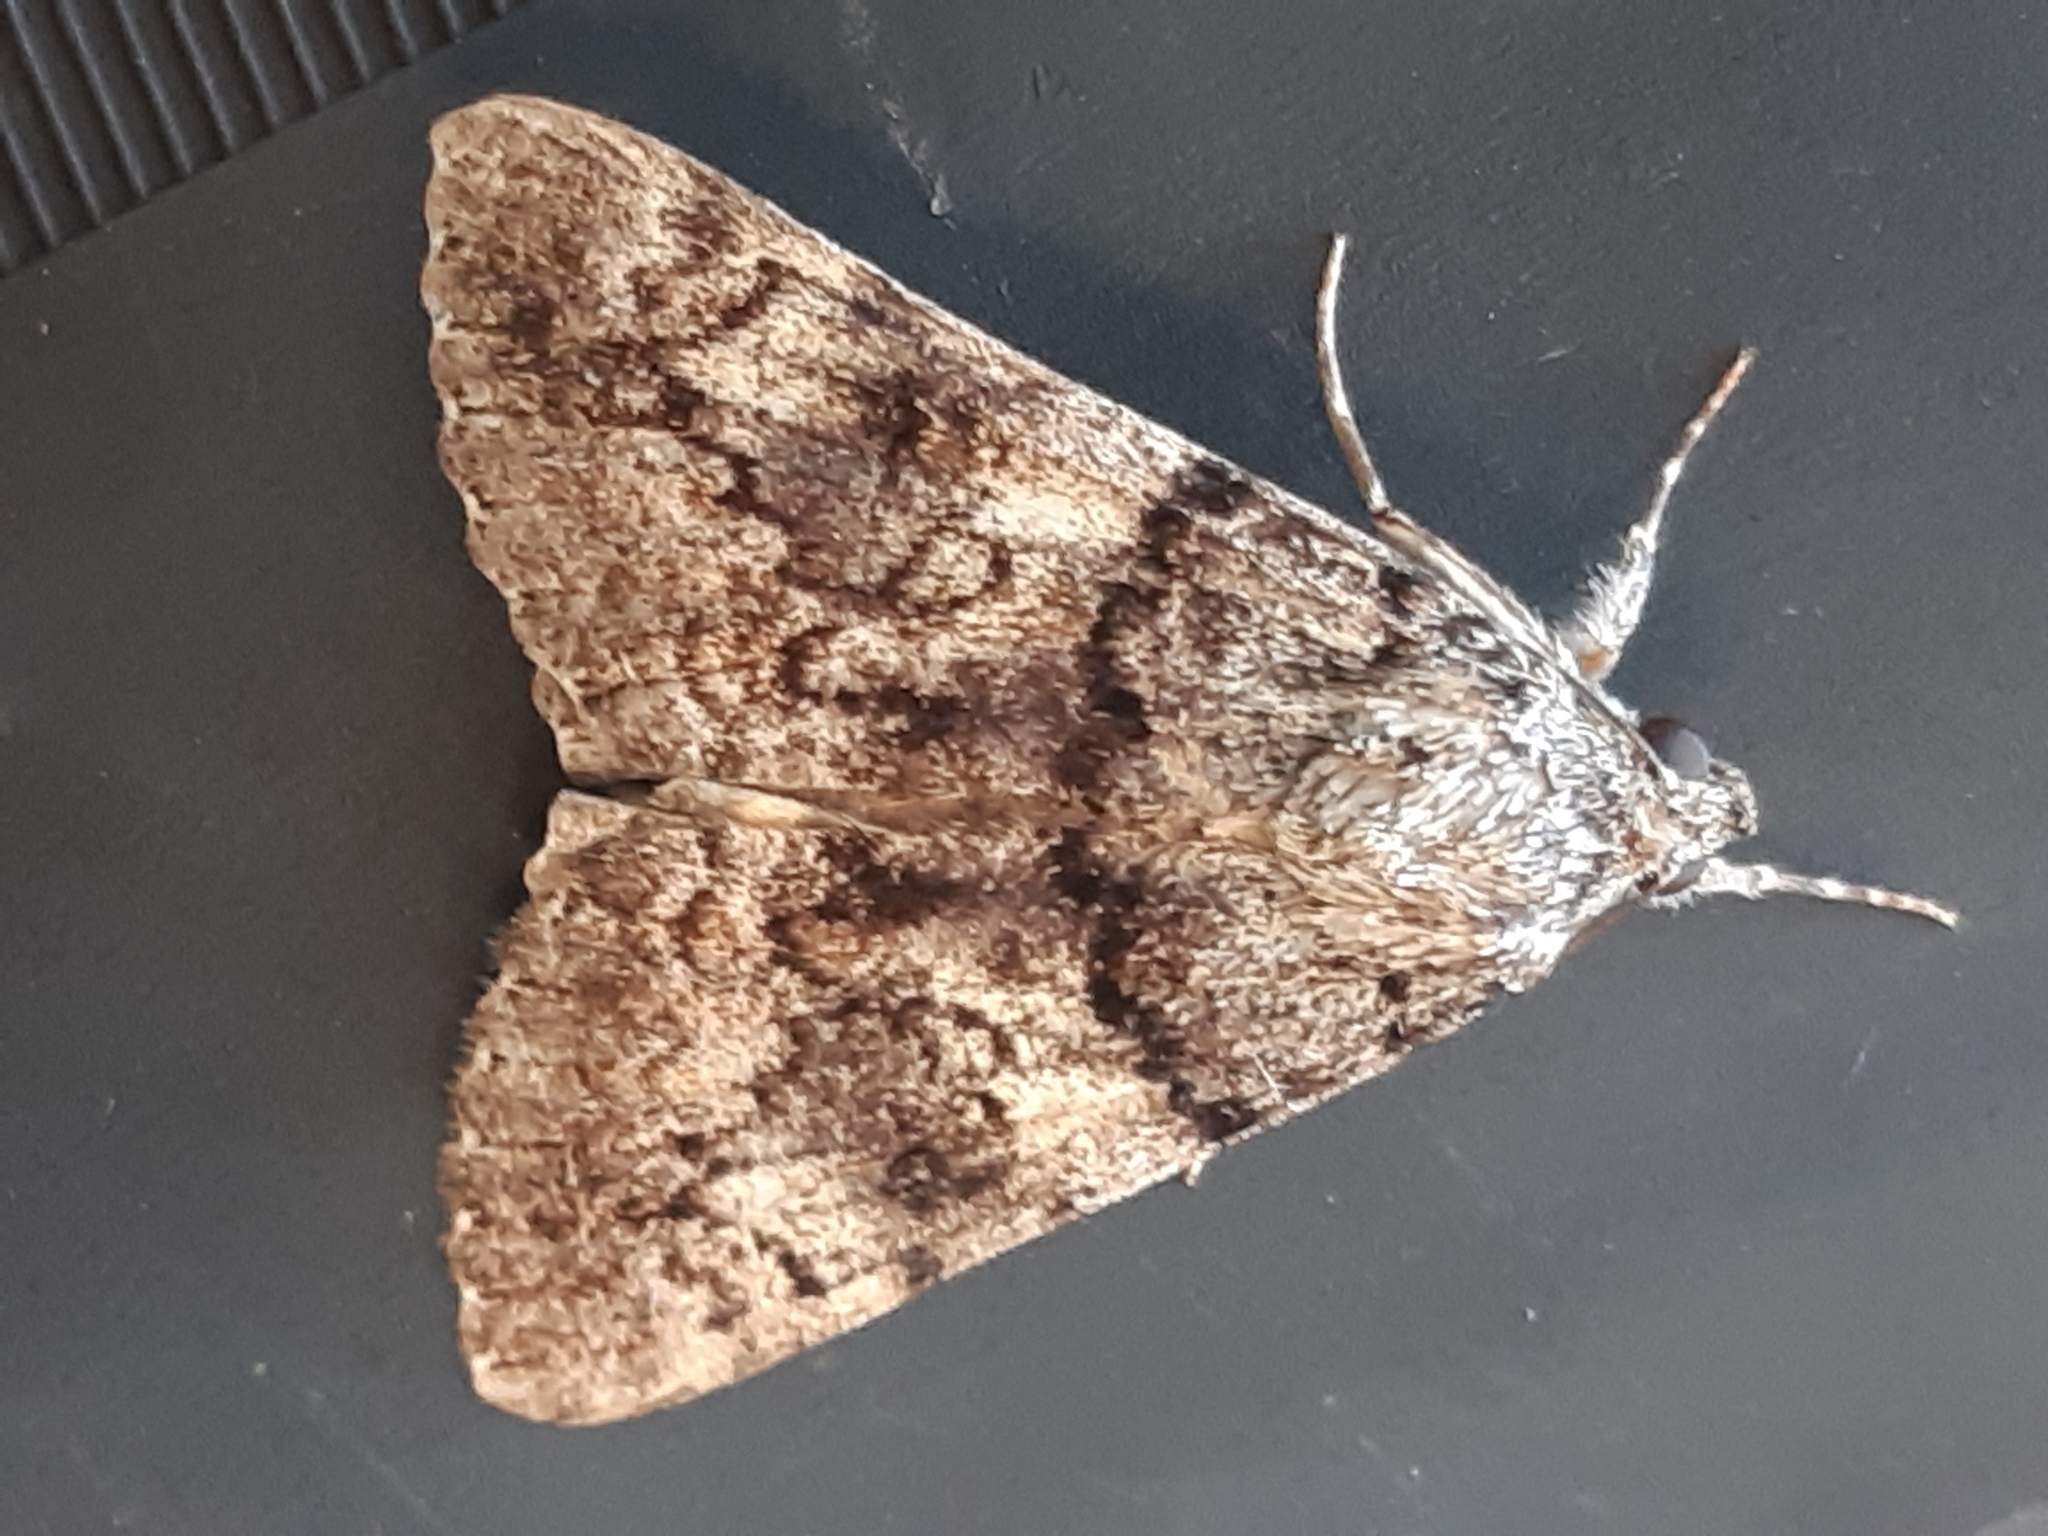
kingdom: Animalia
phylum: Arthropoda
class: Insecta
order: Lepidoptera
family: Erebidae
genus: Catocala
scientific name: Catocala nymphagoga
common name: Oak yellow underwing
